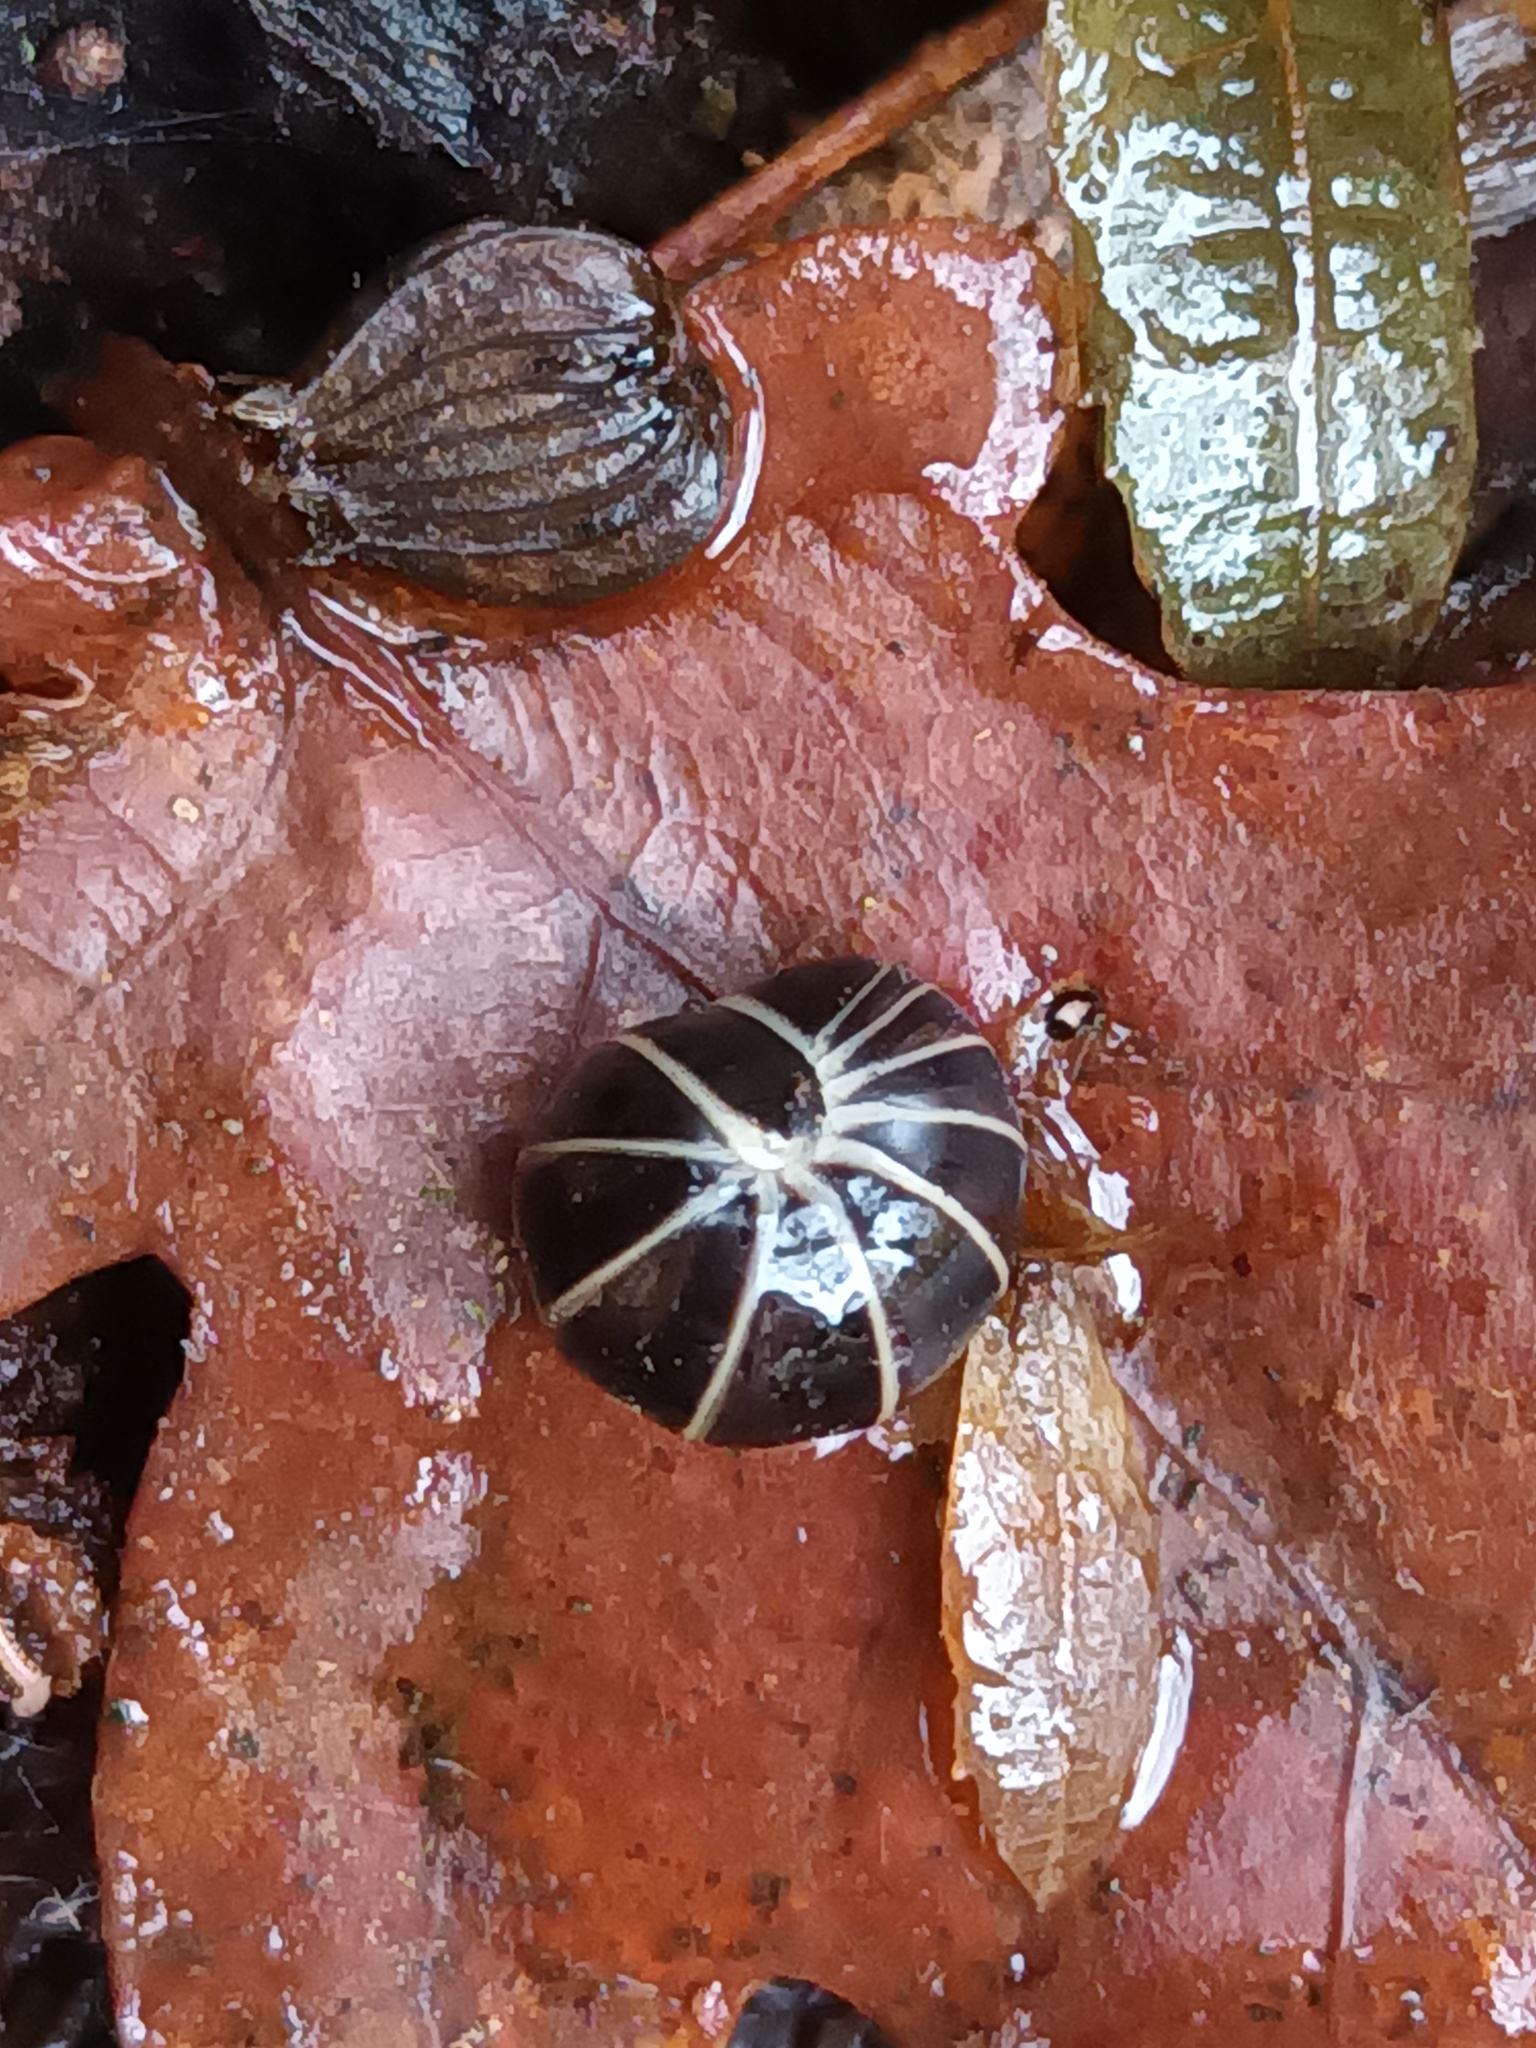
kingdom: Animalia
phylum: Arthropoda
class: Diplopoda
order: Glomerida
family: Glomeridae
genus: Glomeris
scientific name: Glomeris marginata
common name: Bordered pill millipede
